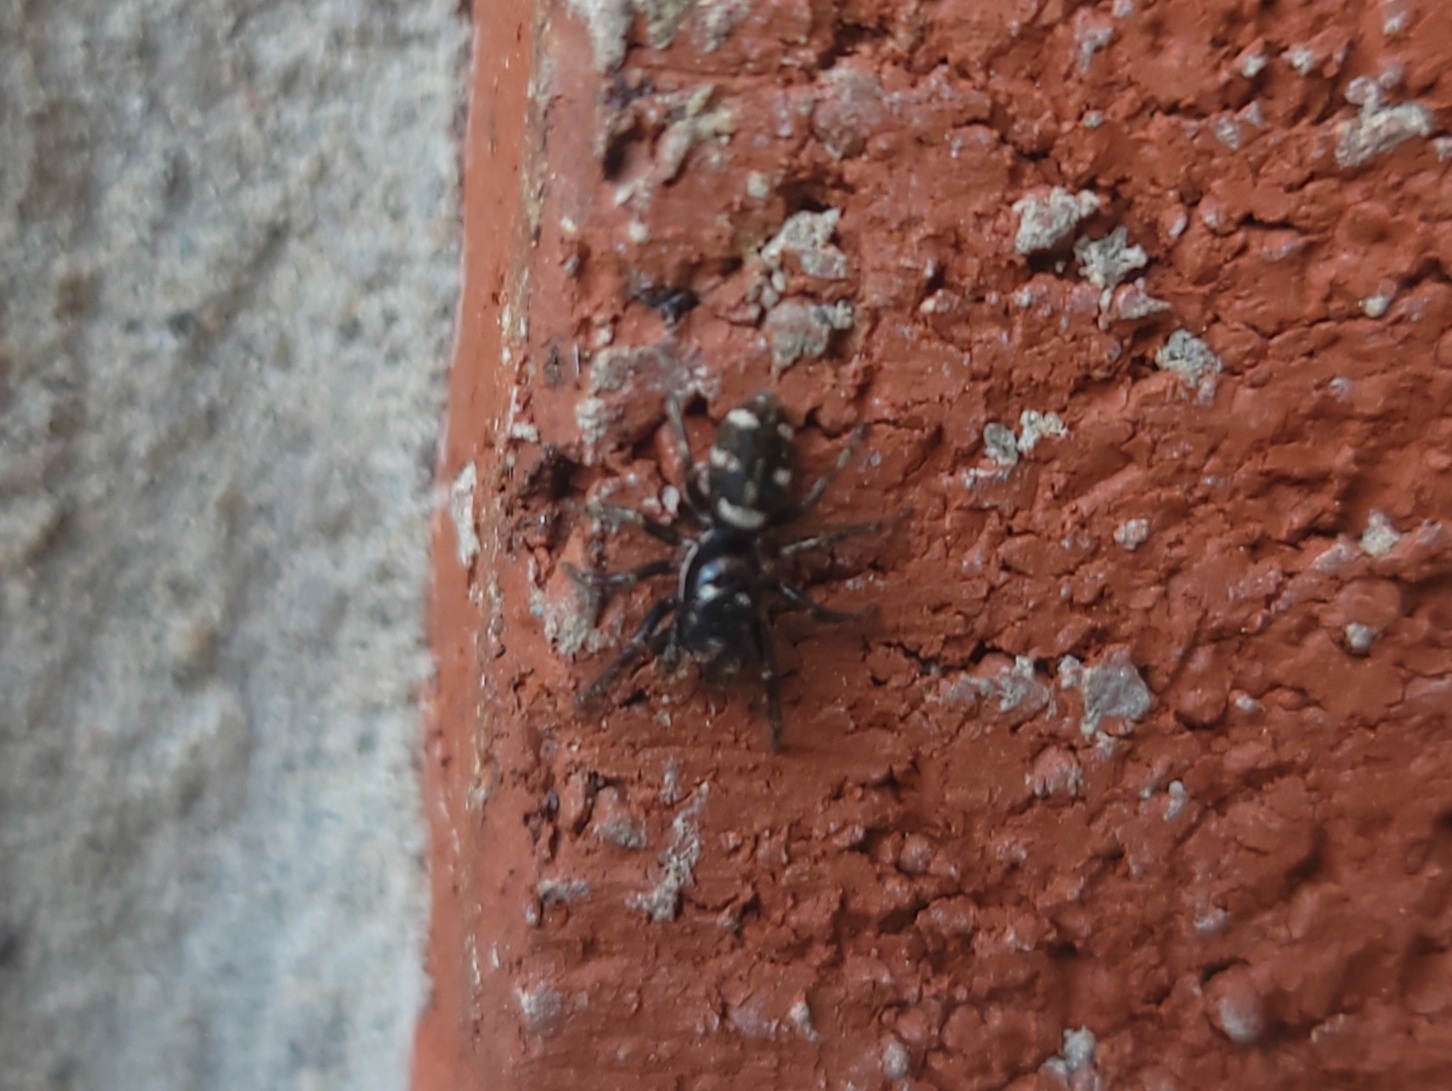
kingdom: Animalia
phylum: Arthropoda
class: Arachnida
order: Araneae
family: Salticidae
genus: Salticus
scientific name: Salticus scenicus
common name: Zebra jumper
